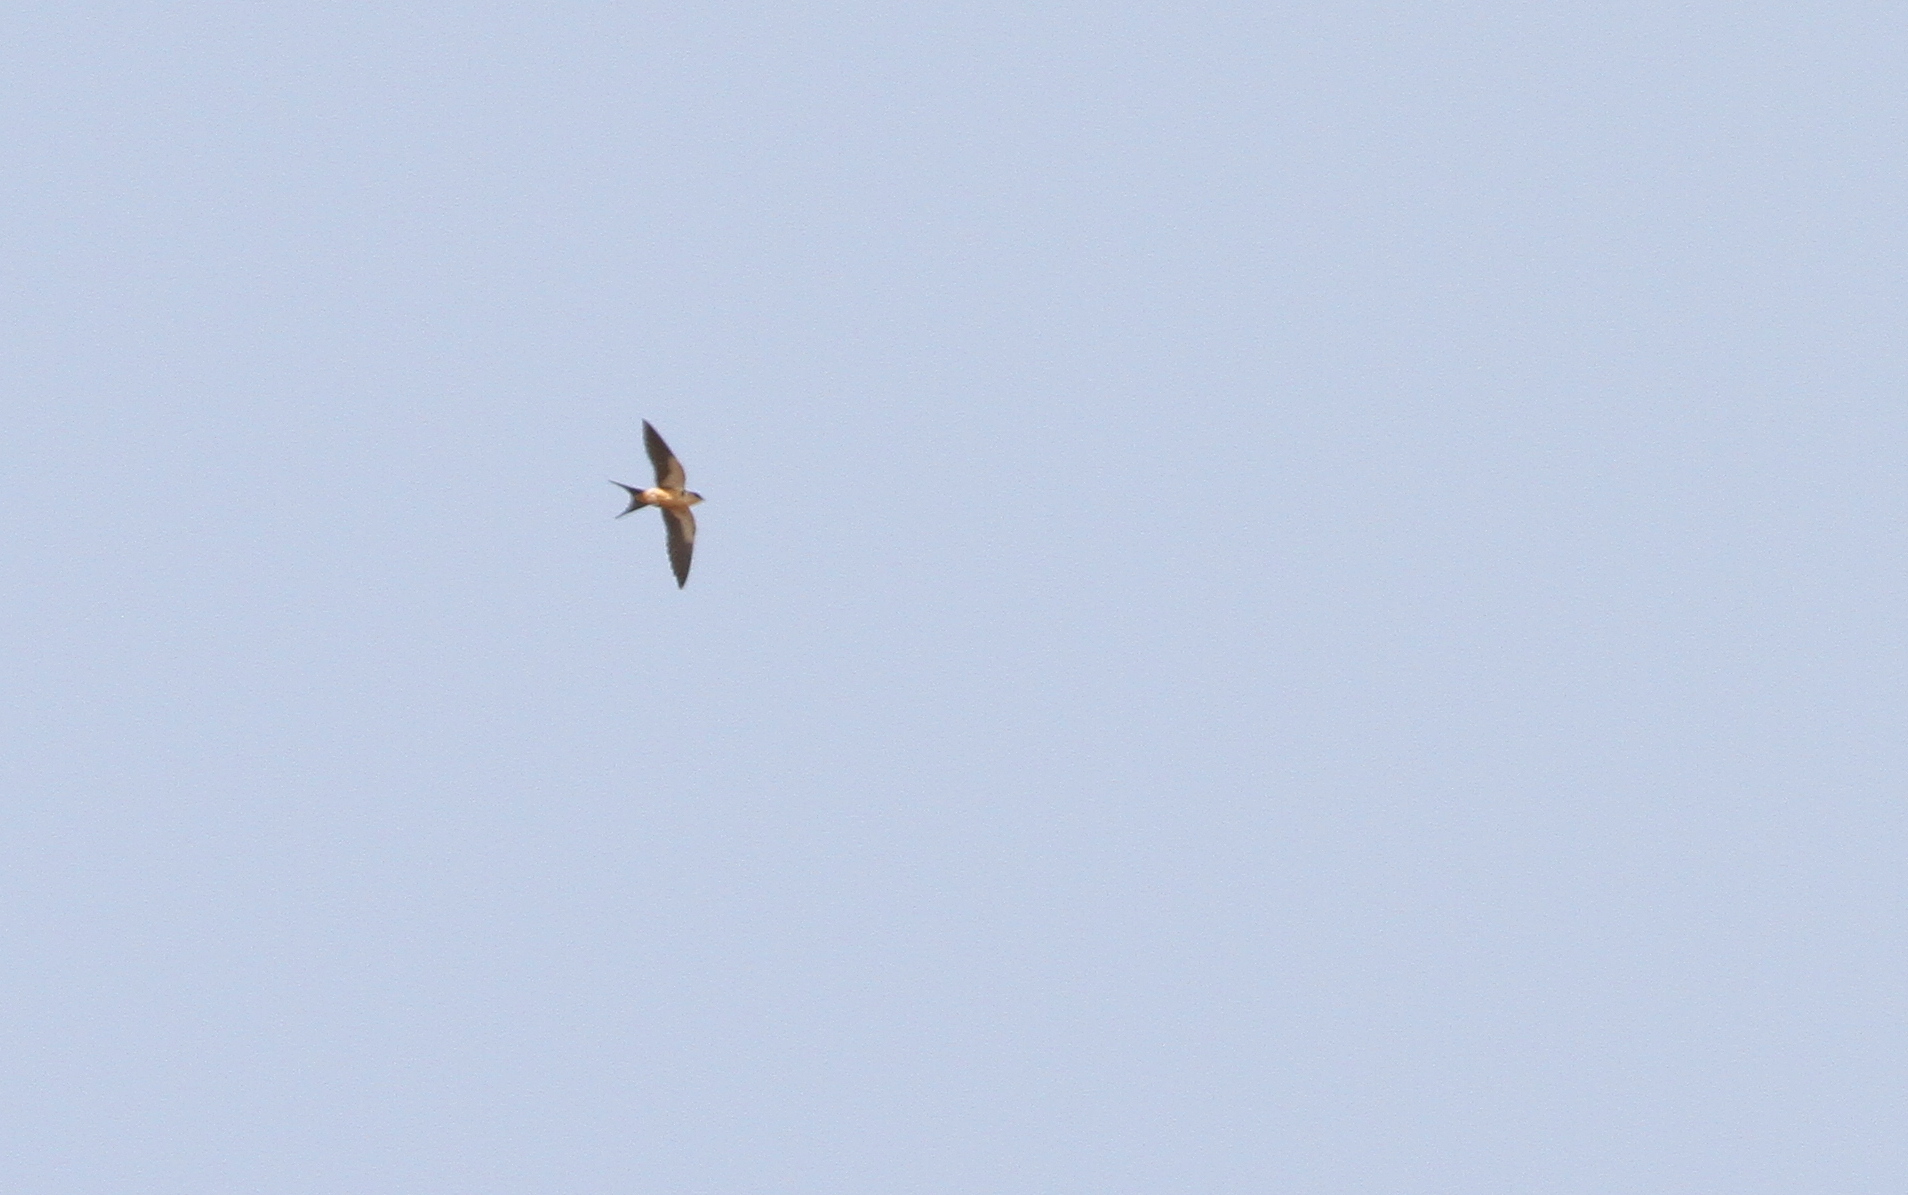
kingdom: Animalia
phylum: Chordata
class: Aves
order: Passeriformes
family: Hirundinidae
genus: Cecropis
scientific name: Cecropis senegalensis
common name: Mosque swallow
